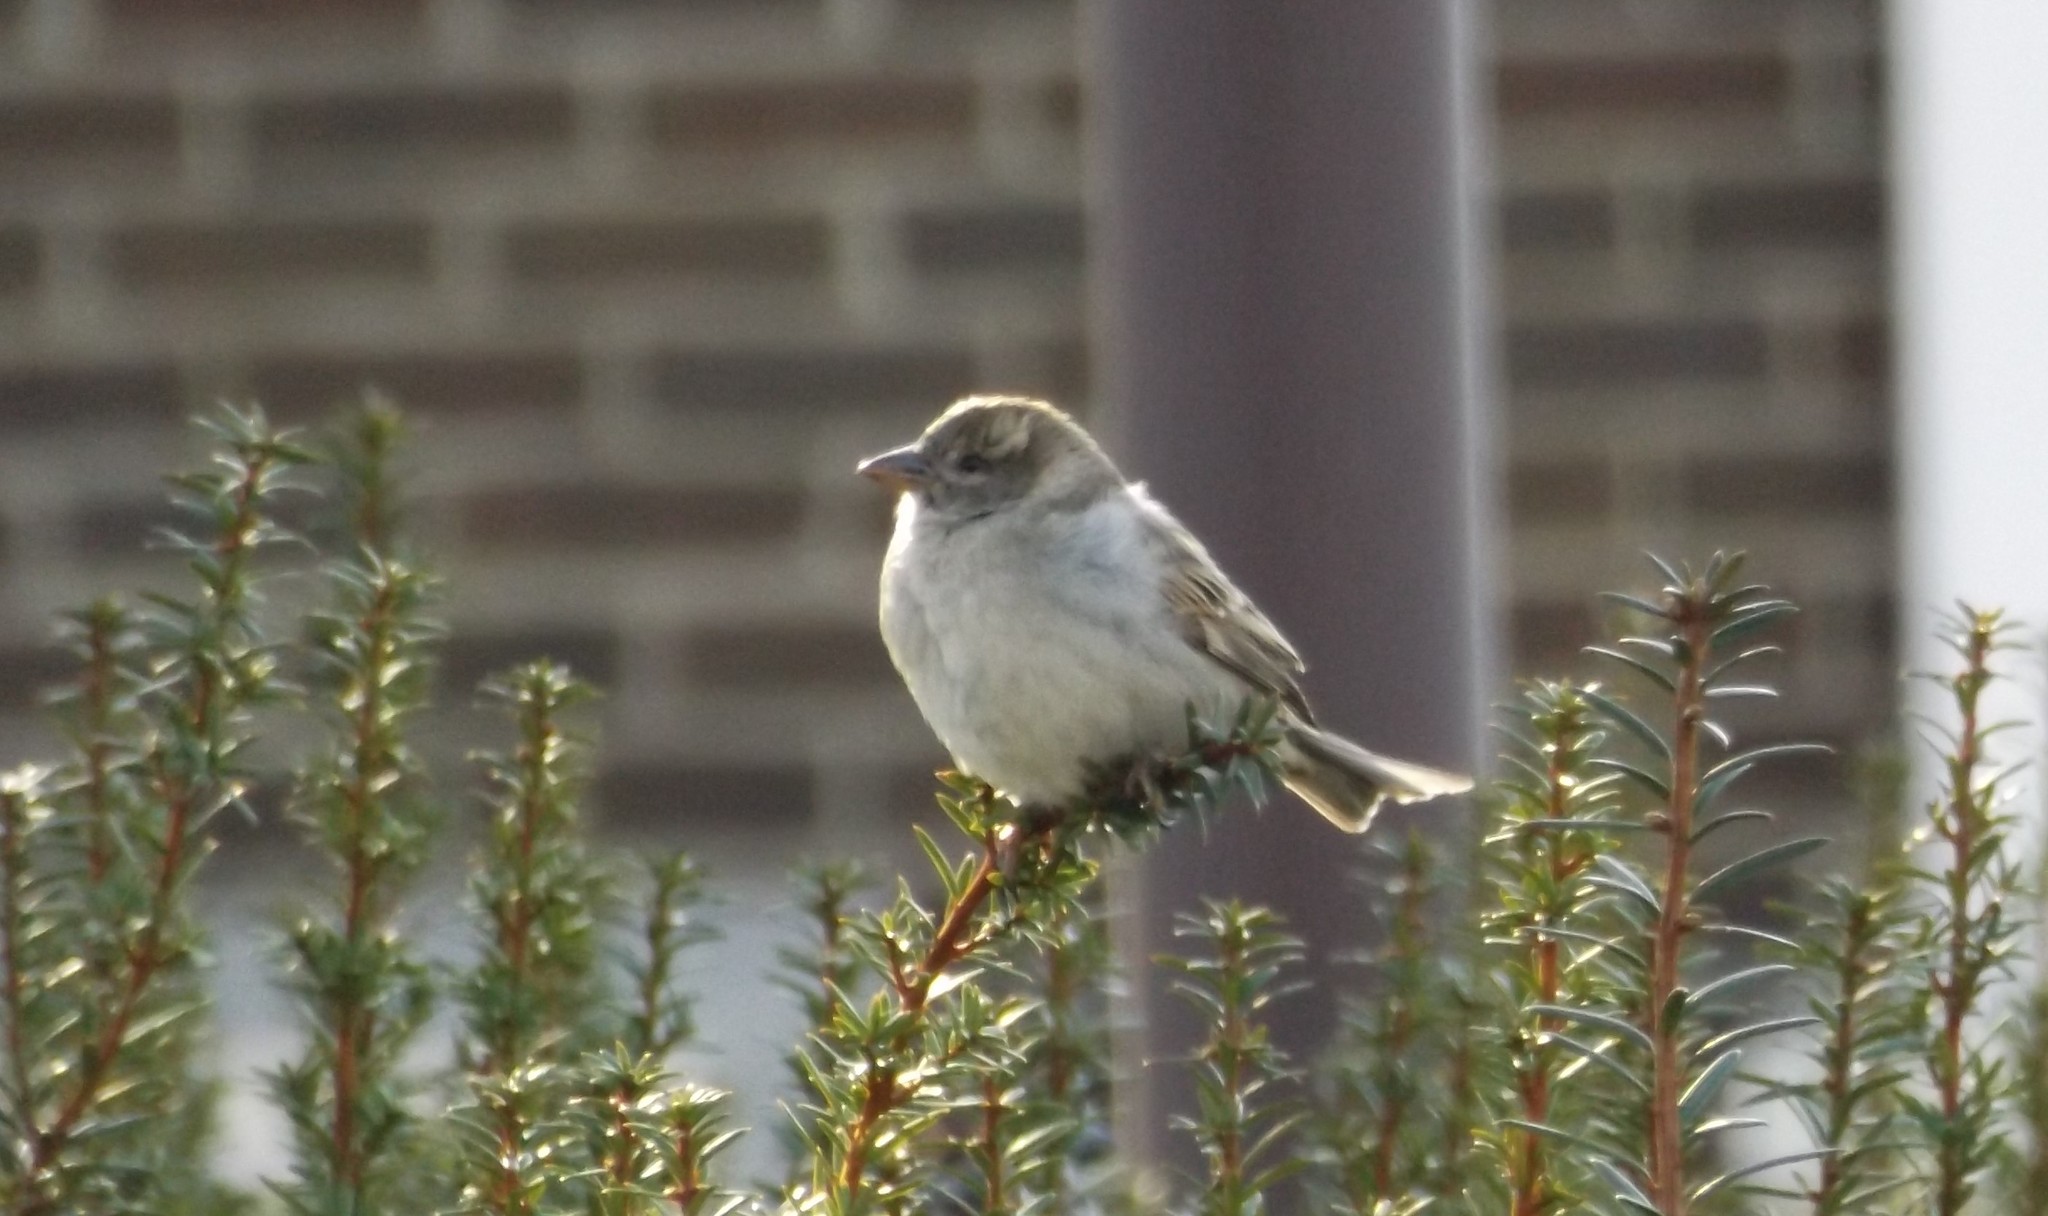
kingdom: Animalia
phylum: Chordata
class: Aves
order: Passeriformes
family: Passeridae
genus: Passer
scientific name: Passer domesticus
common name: House sparrow
